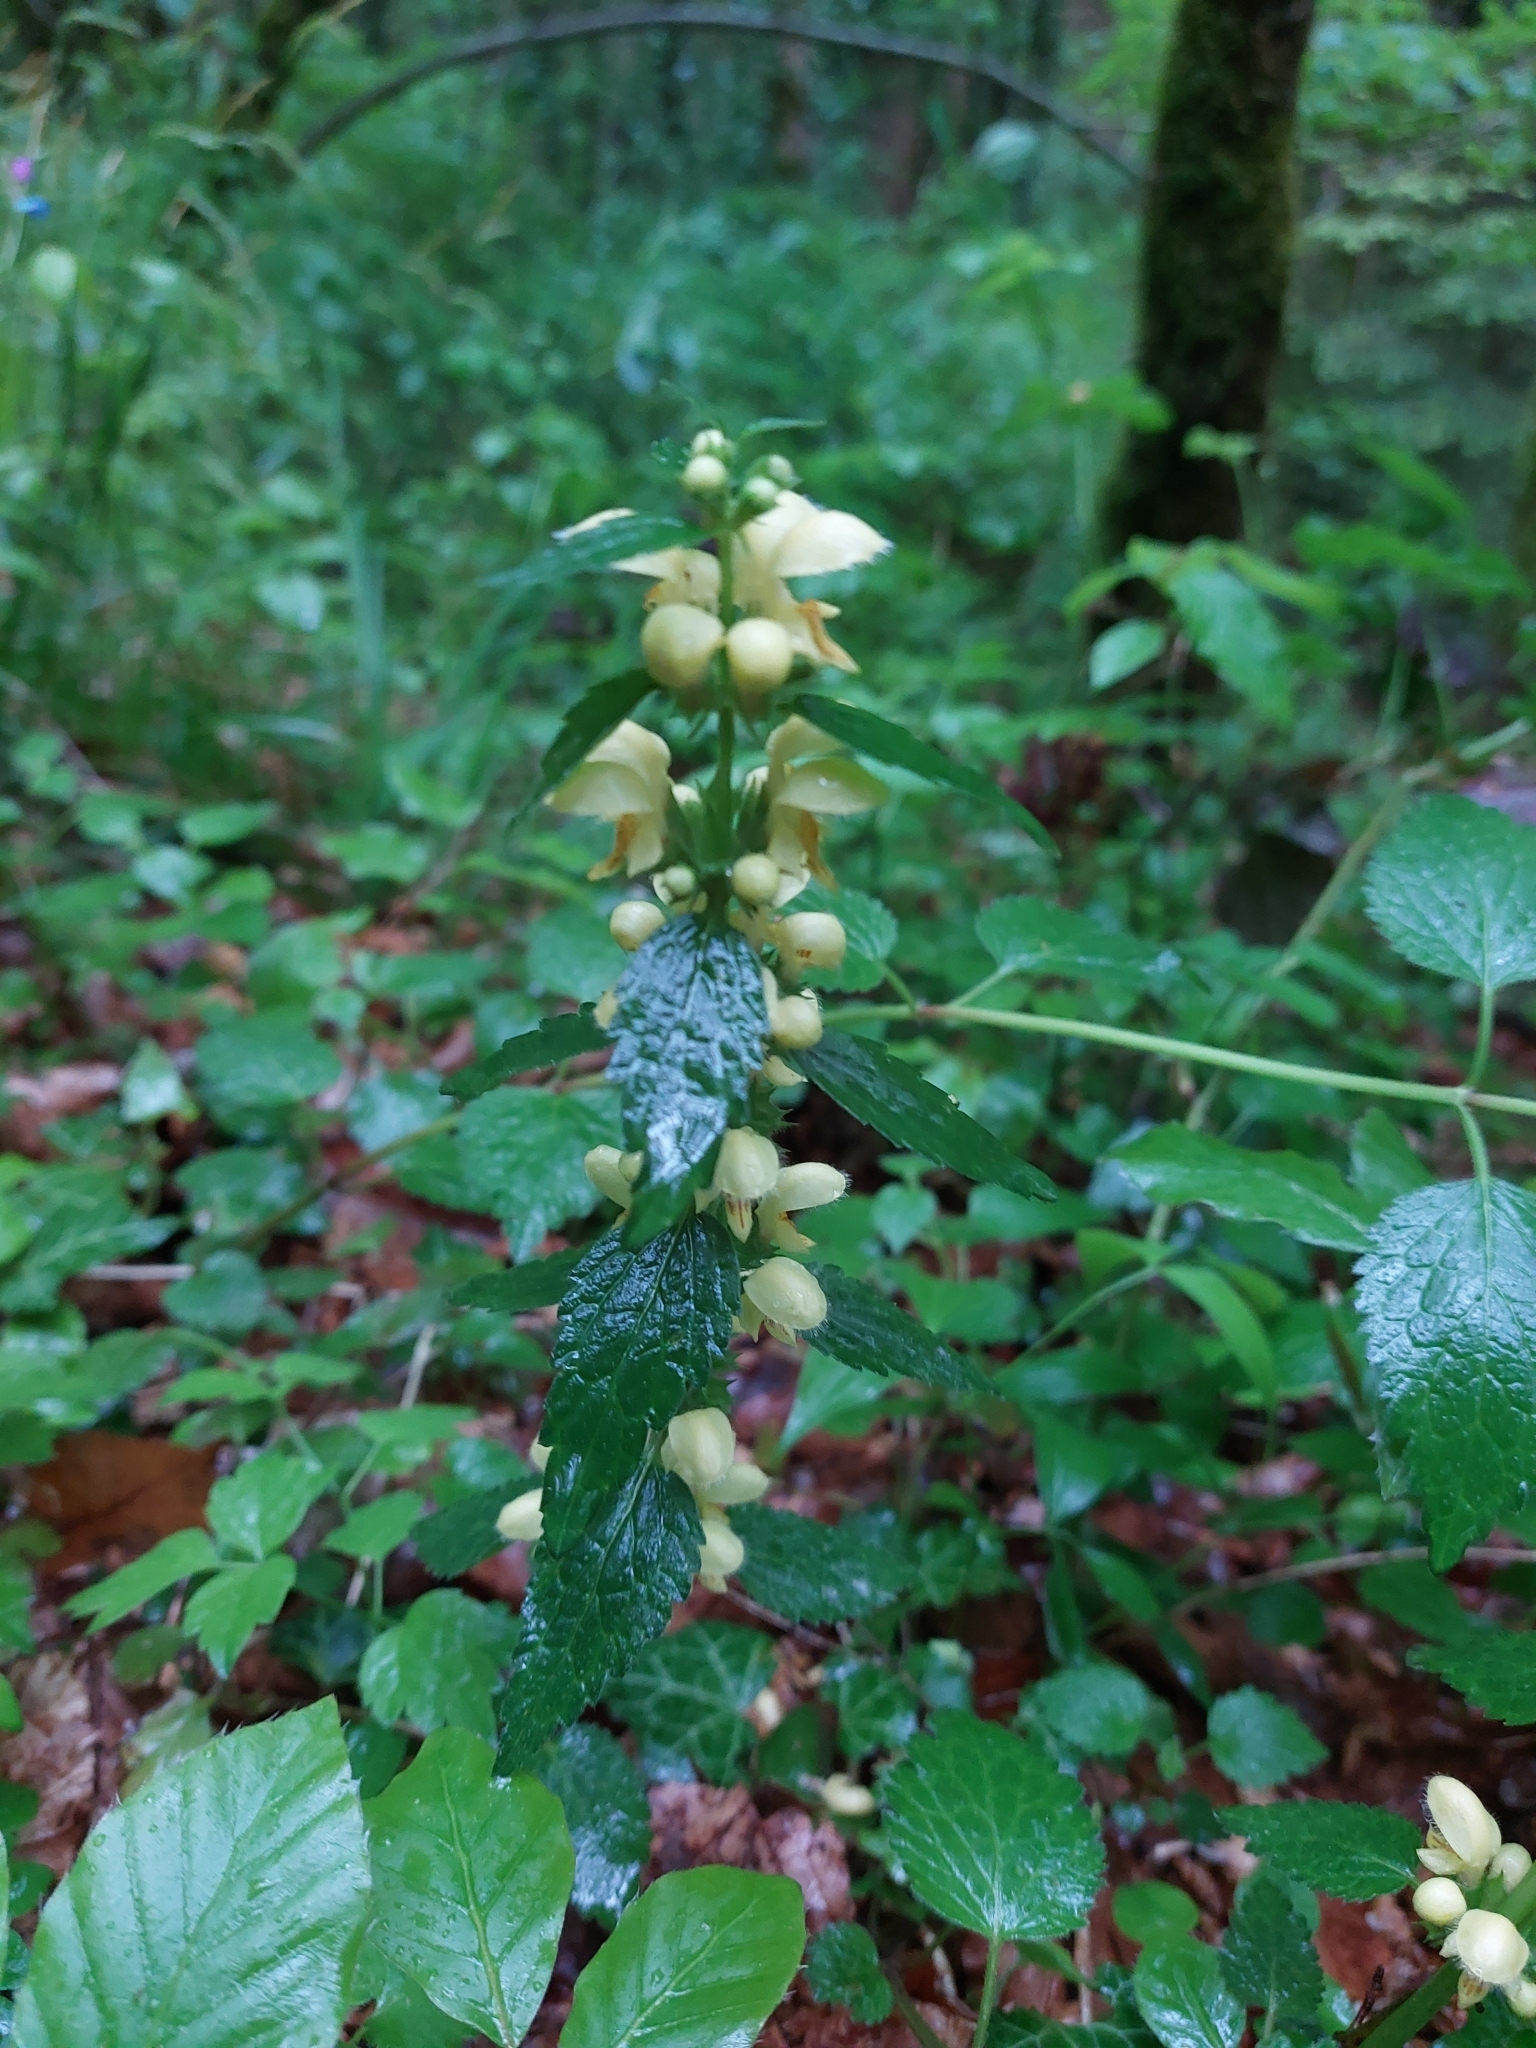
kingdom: Plantae
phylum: Tracheophyta
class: Magnoliopsida
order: Lamiales
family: Lamiaceae
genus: Lamium
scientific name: Lamium galeobdolon
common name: Yellow archangel
